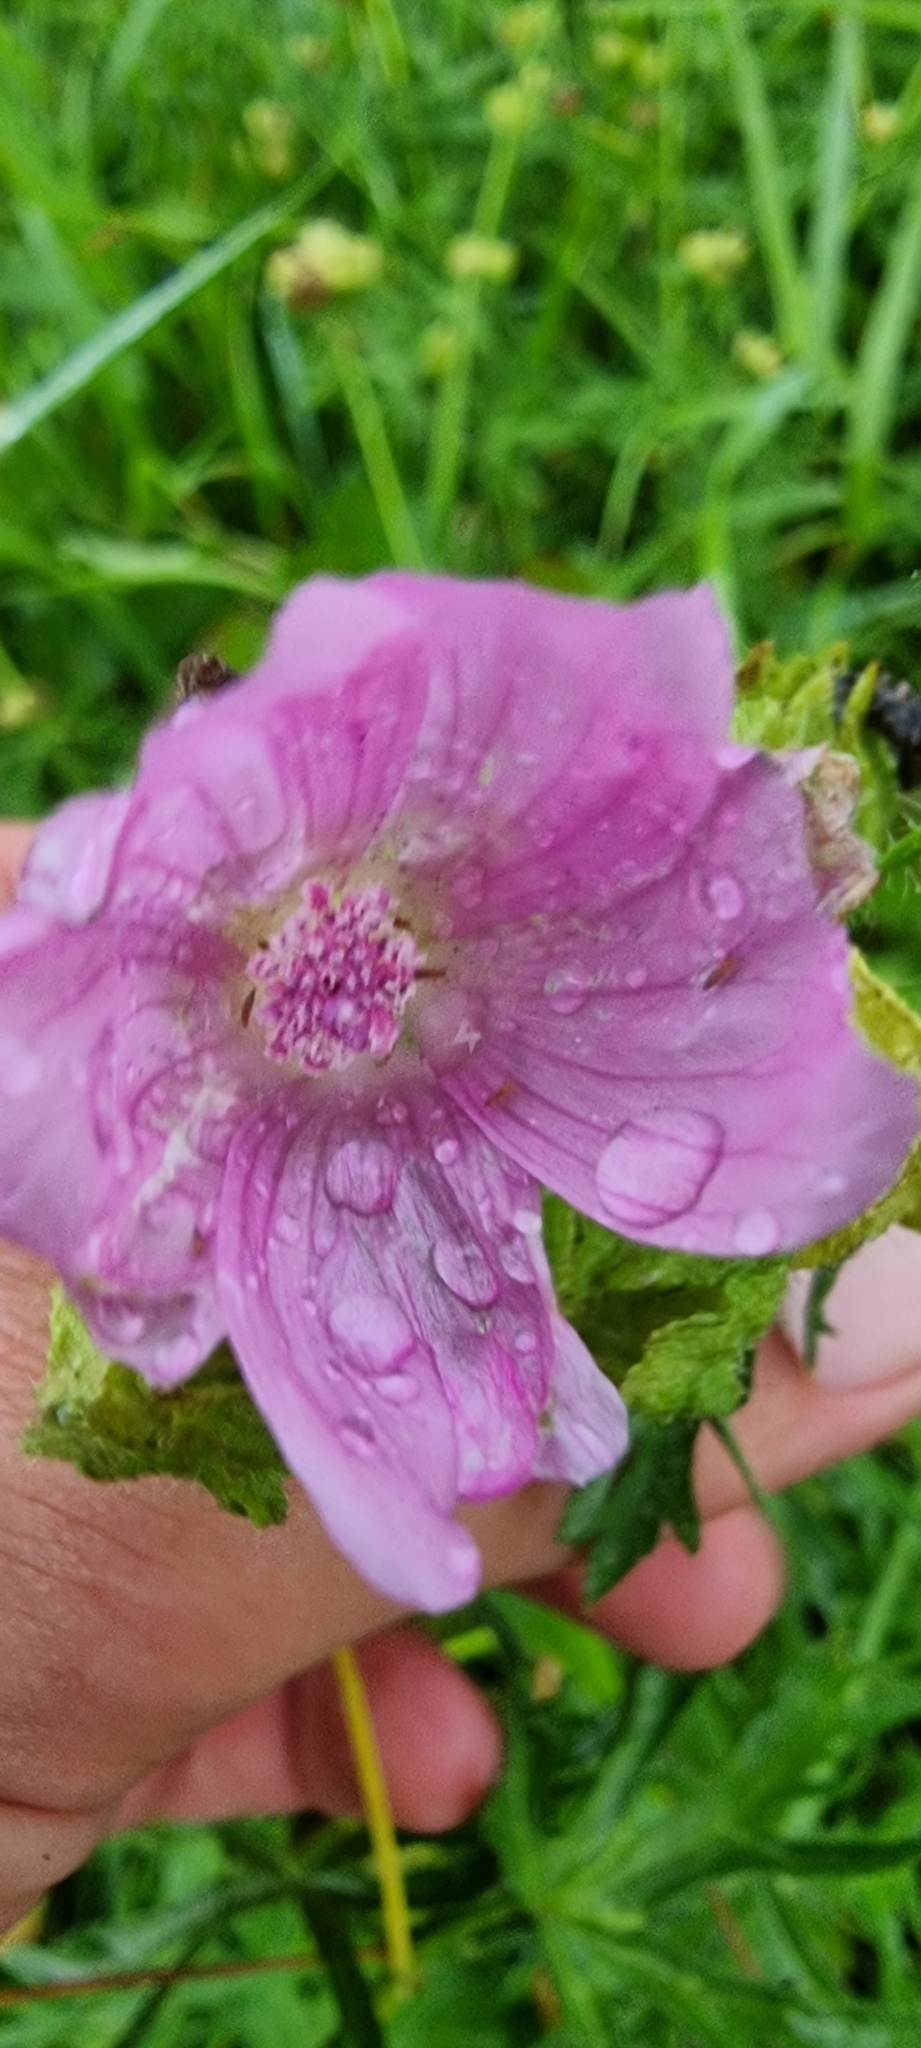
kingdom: Plantae
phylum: Tracheophyta
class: Magnoliopsida
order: Malvales
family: Malvaceae
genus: Malva
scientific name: Malva moschata
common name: Musk mallow
